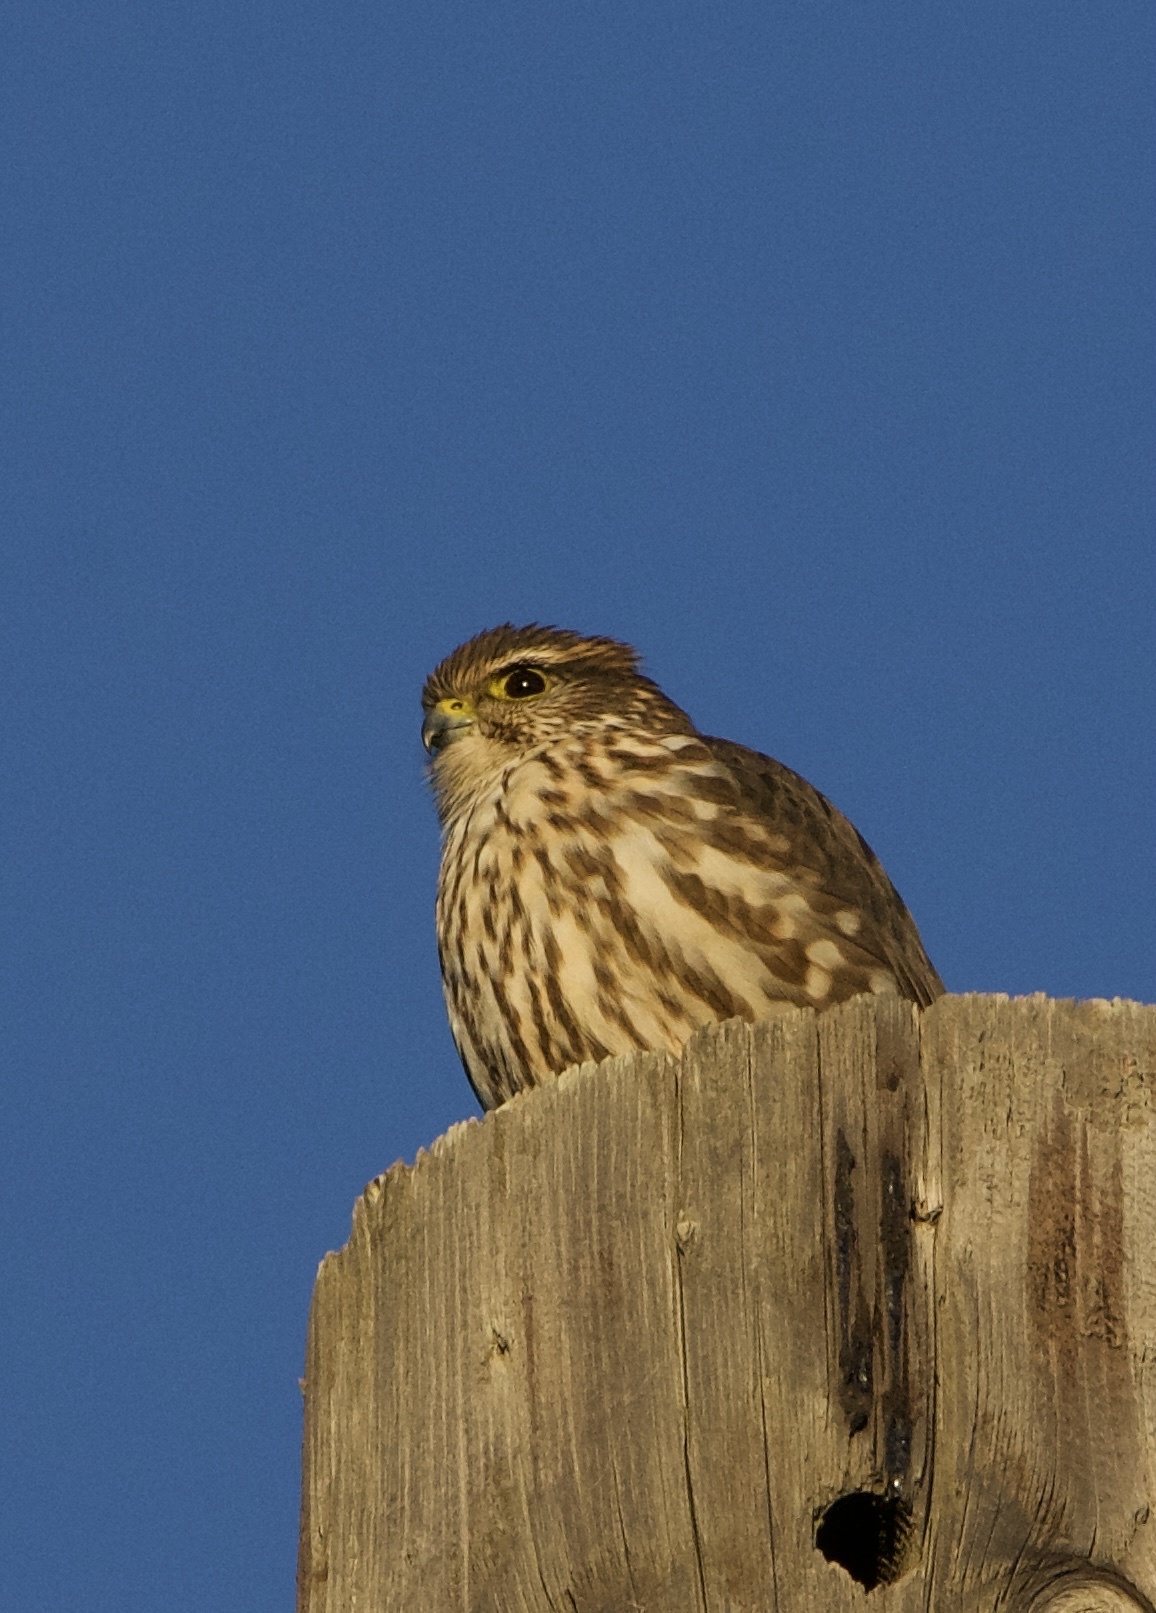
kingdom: Animalia
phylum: Chordata
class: Aves
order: Falconiformes
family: Falconidae
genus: Falco
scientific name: Falco columbarius
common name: Merlin
